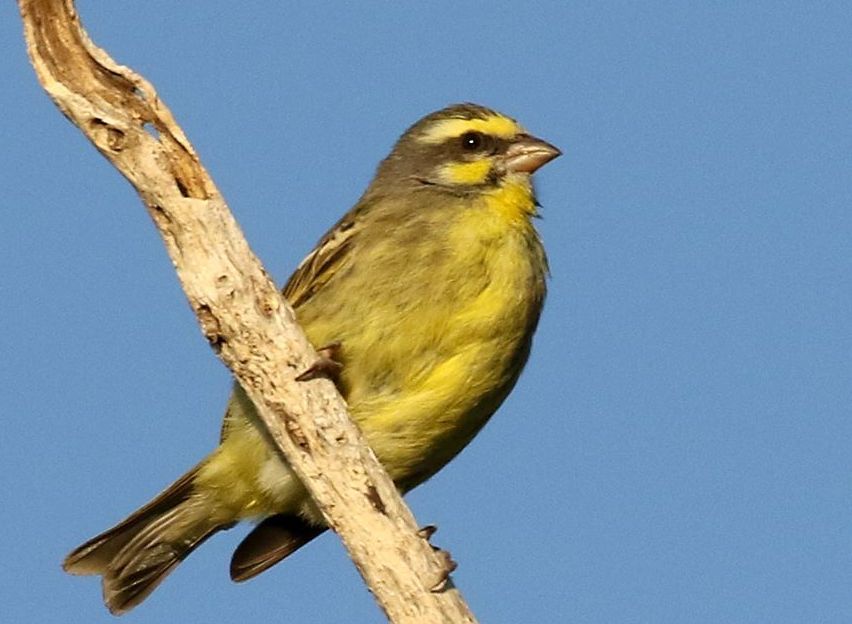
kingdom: Animalia
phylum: Chordata
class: Aves
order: Passeriformes
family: Fringillidae
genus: Crithagra
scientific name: Crithagra mozambica
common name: Yellow-fronted canary
